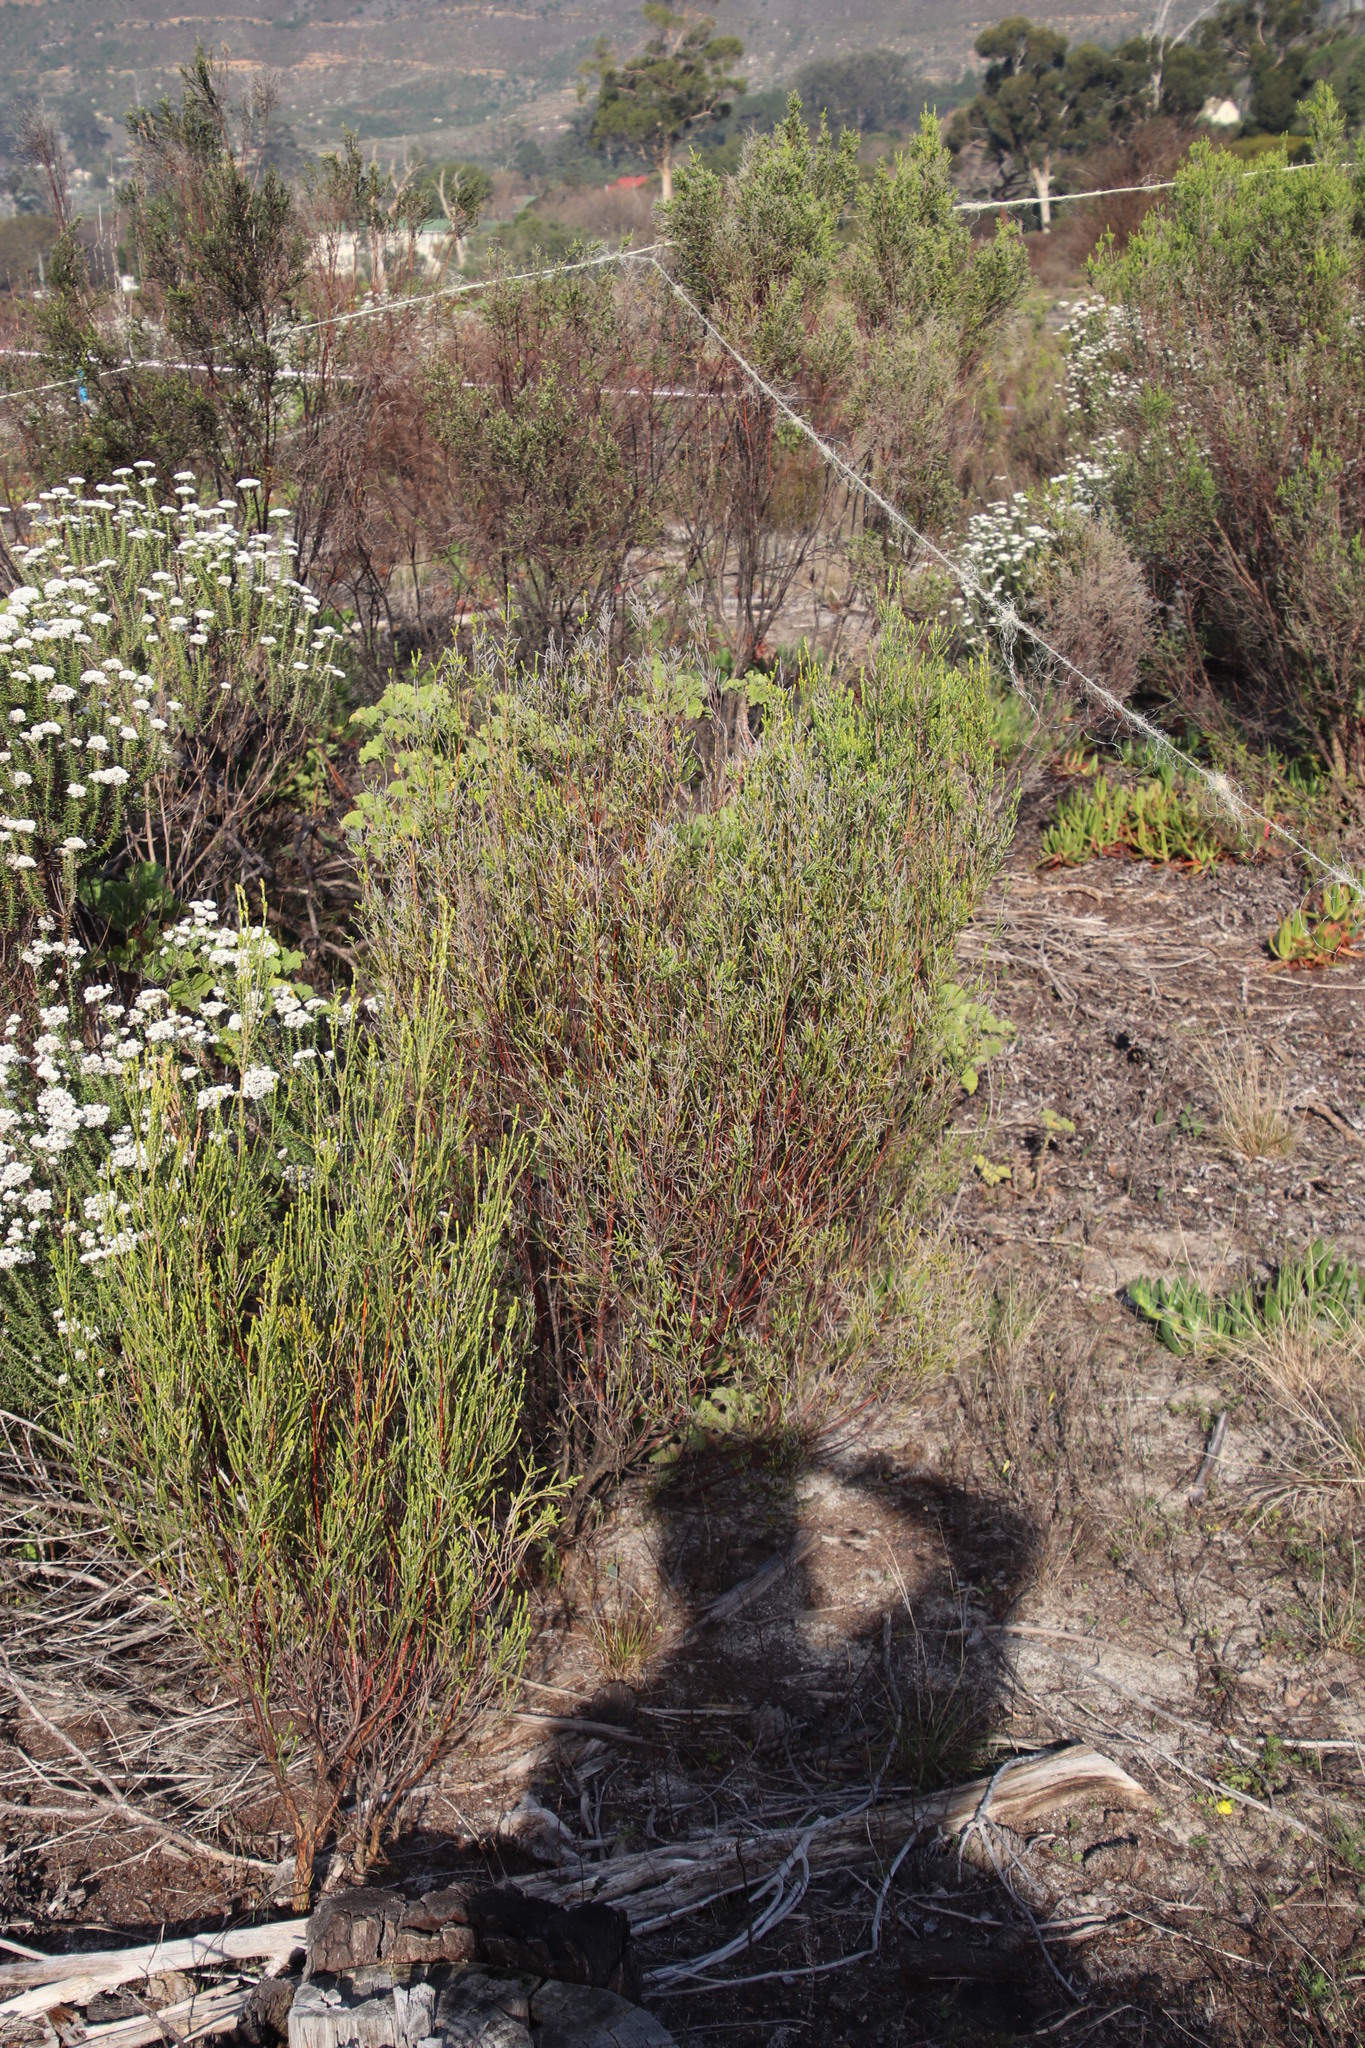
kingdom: Plantae
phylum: Tracheophyta
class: Magnoliopsida
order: Malvales
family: Thymelaeaceae
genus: Passerina
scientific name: Passerina corymbosa
